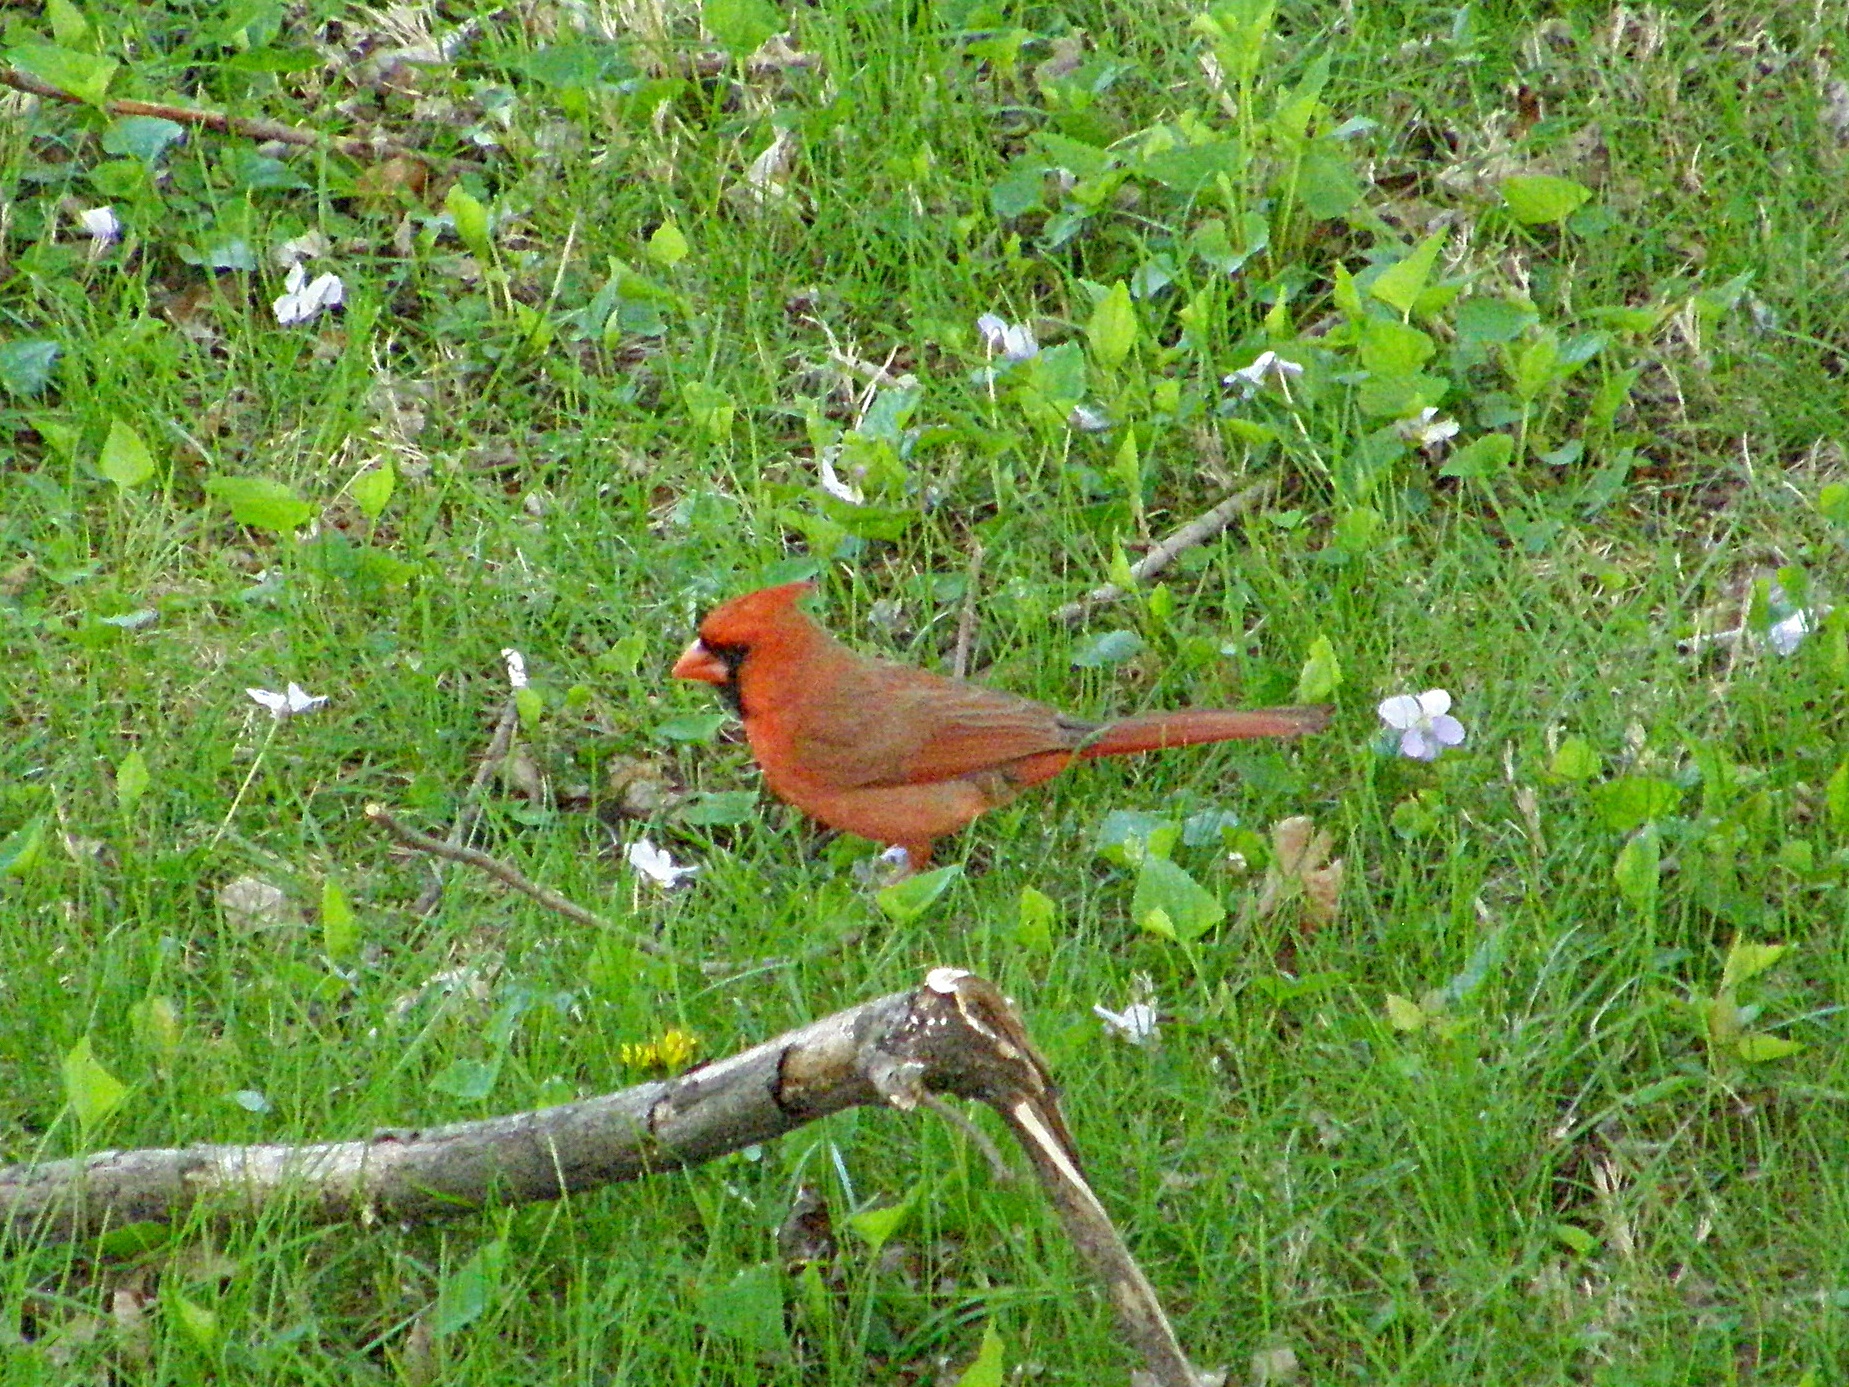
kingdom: Animalia
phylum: Chordata
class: Aves
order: Passeriformes
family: Cardinalidae
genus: Cardinalis
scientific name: Cardinalis cardinalis
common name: Northern cardinal
